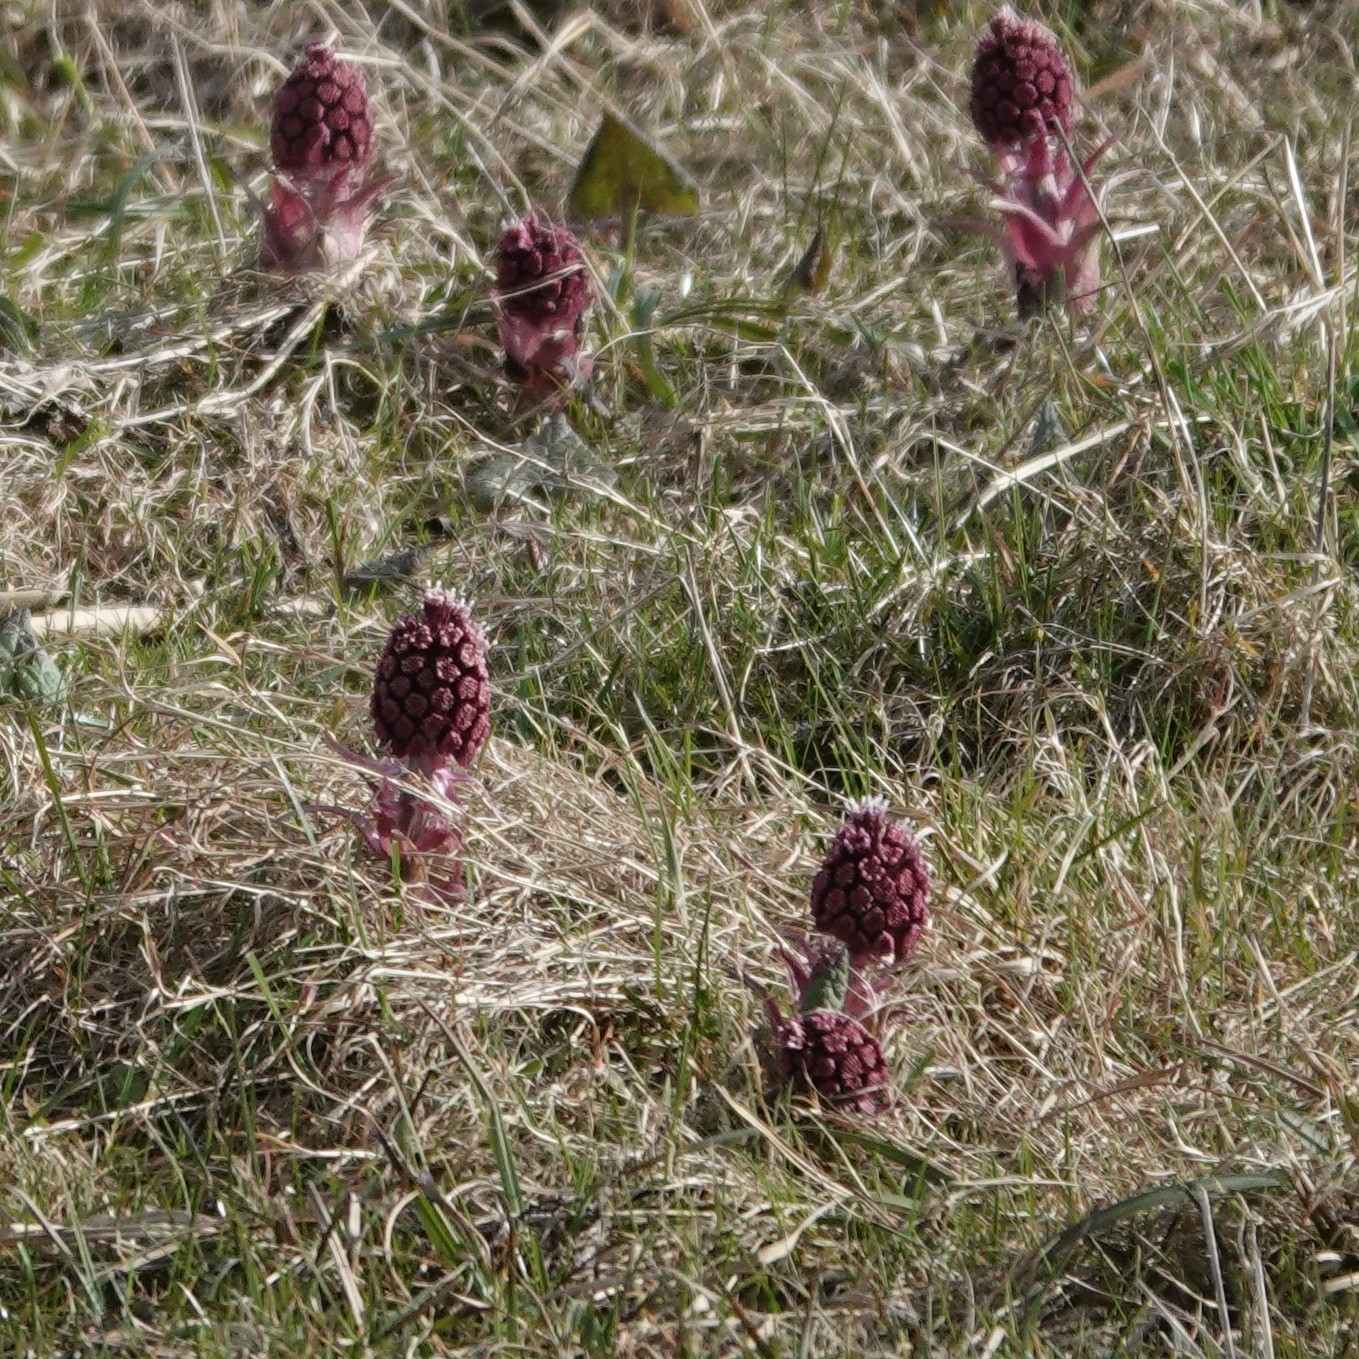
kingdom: Plantae
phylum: Tracheophyta
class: Magnoliopsida
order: Asterales
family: Asteraceae
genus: Petasites
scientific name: Petasites hybridus
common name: Butterbur
